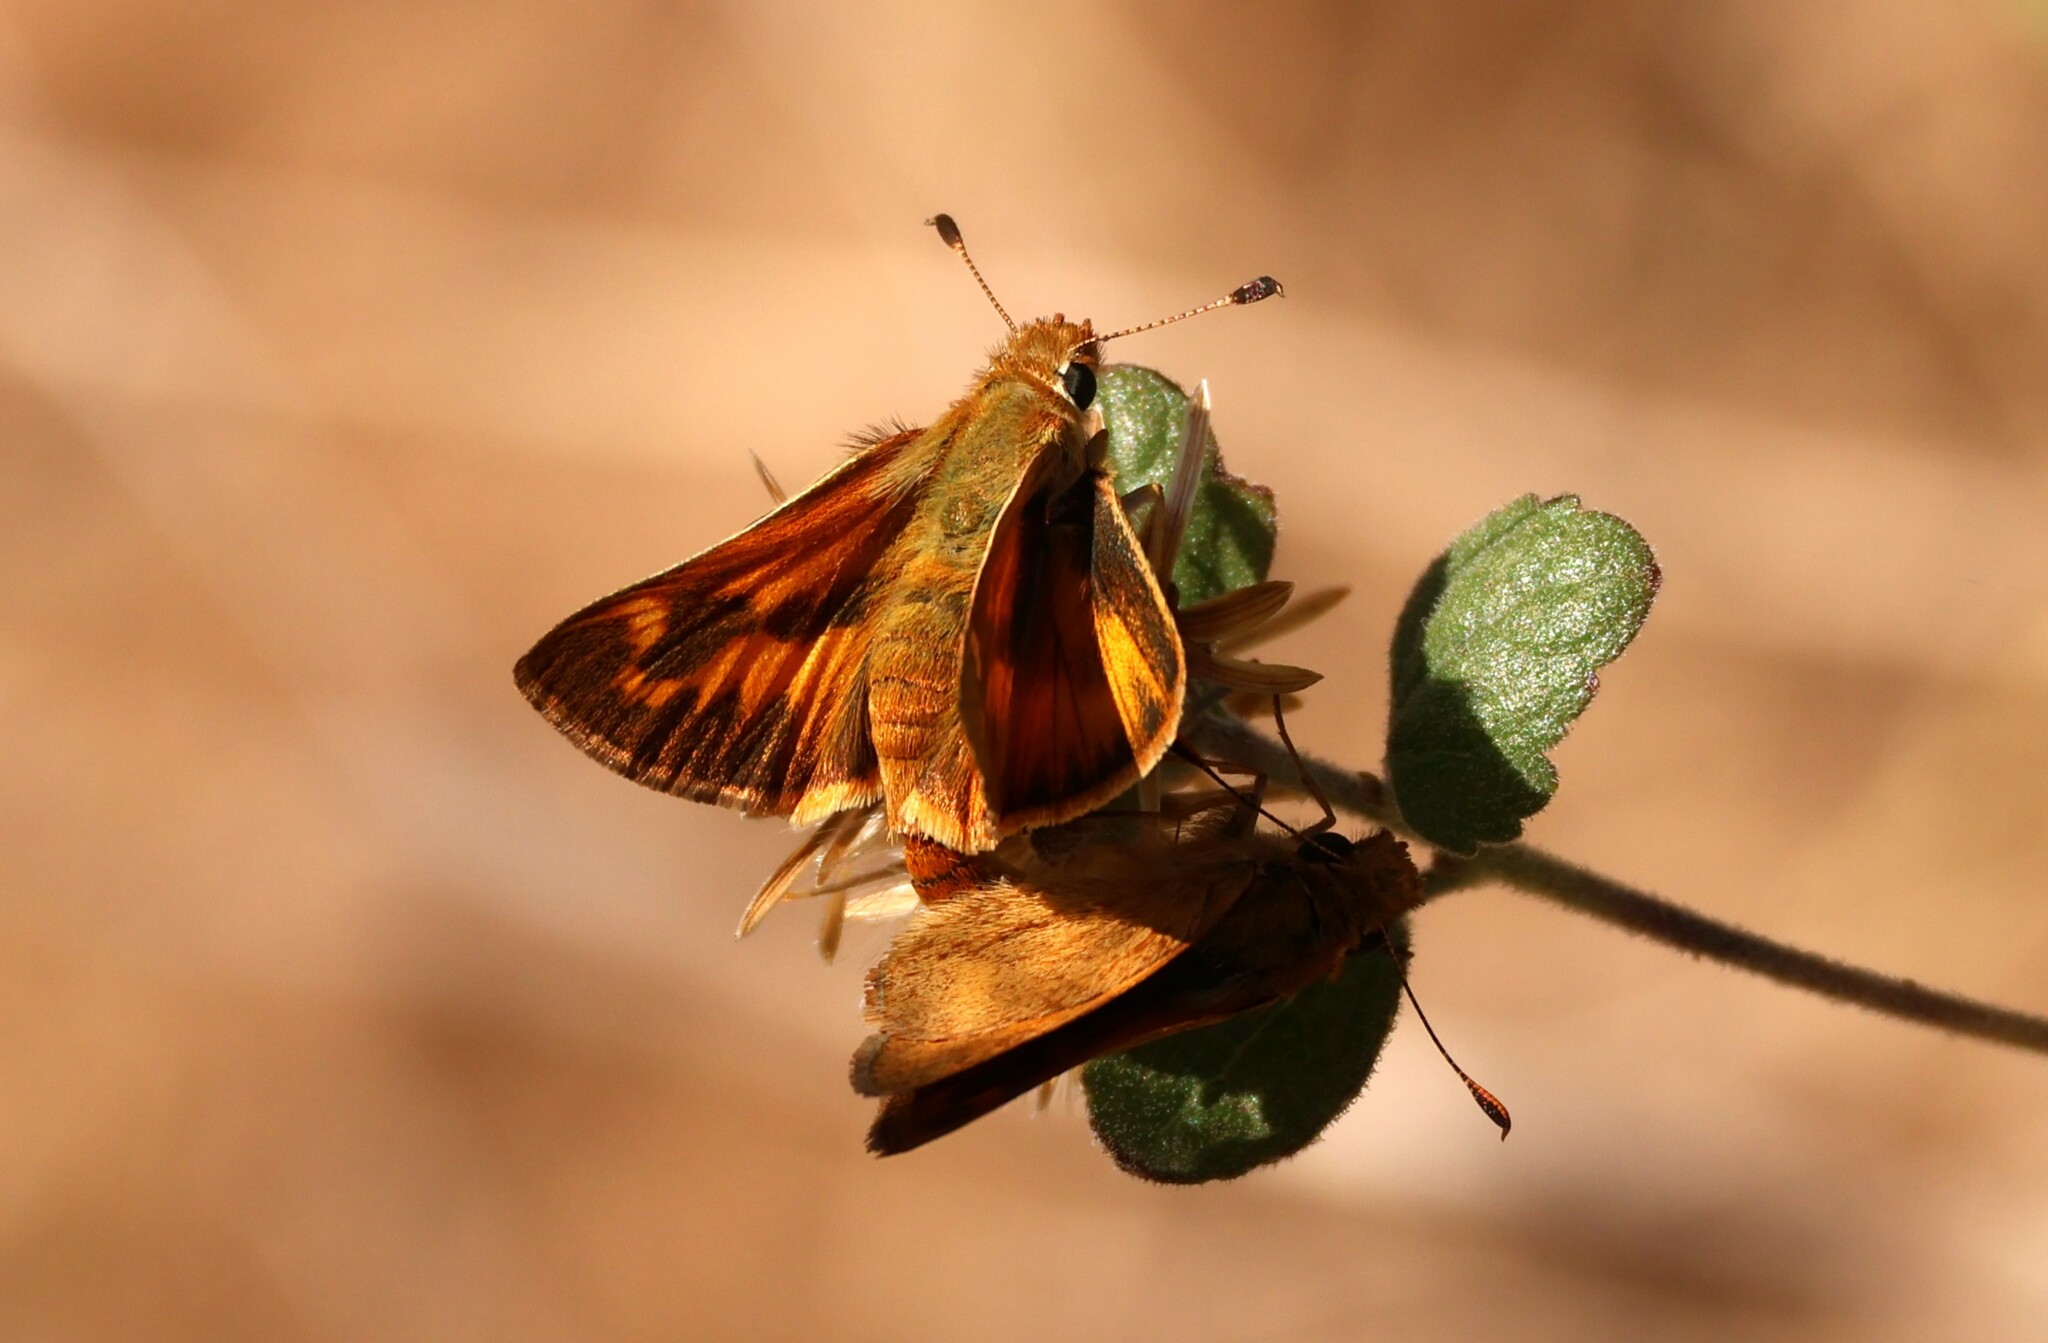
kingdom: Animalia
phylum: Arthropoda
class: Insecta
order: Lepidoptera
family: Hesperiidae
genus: Ochlodes
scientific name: Ochlodes sylvanoides
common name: Woodland skipper
